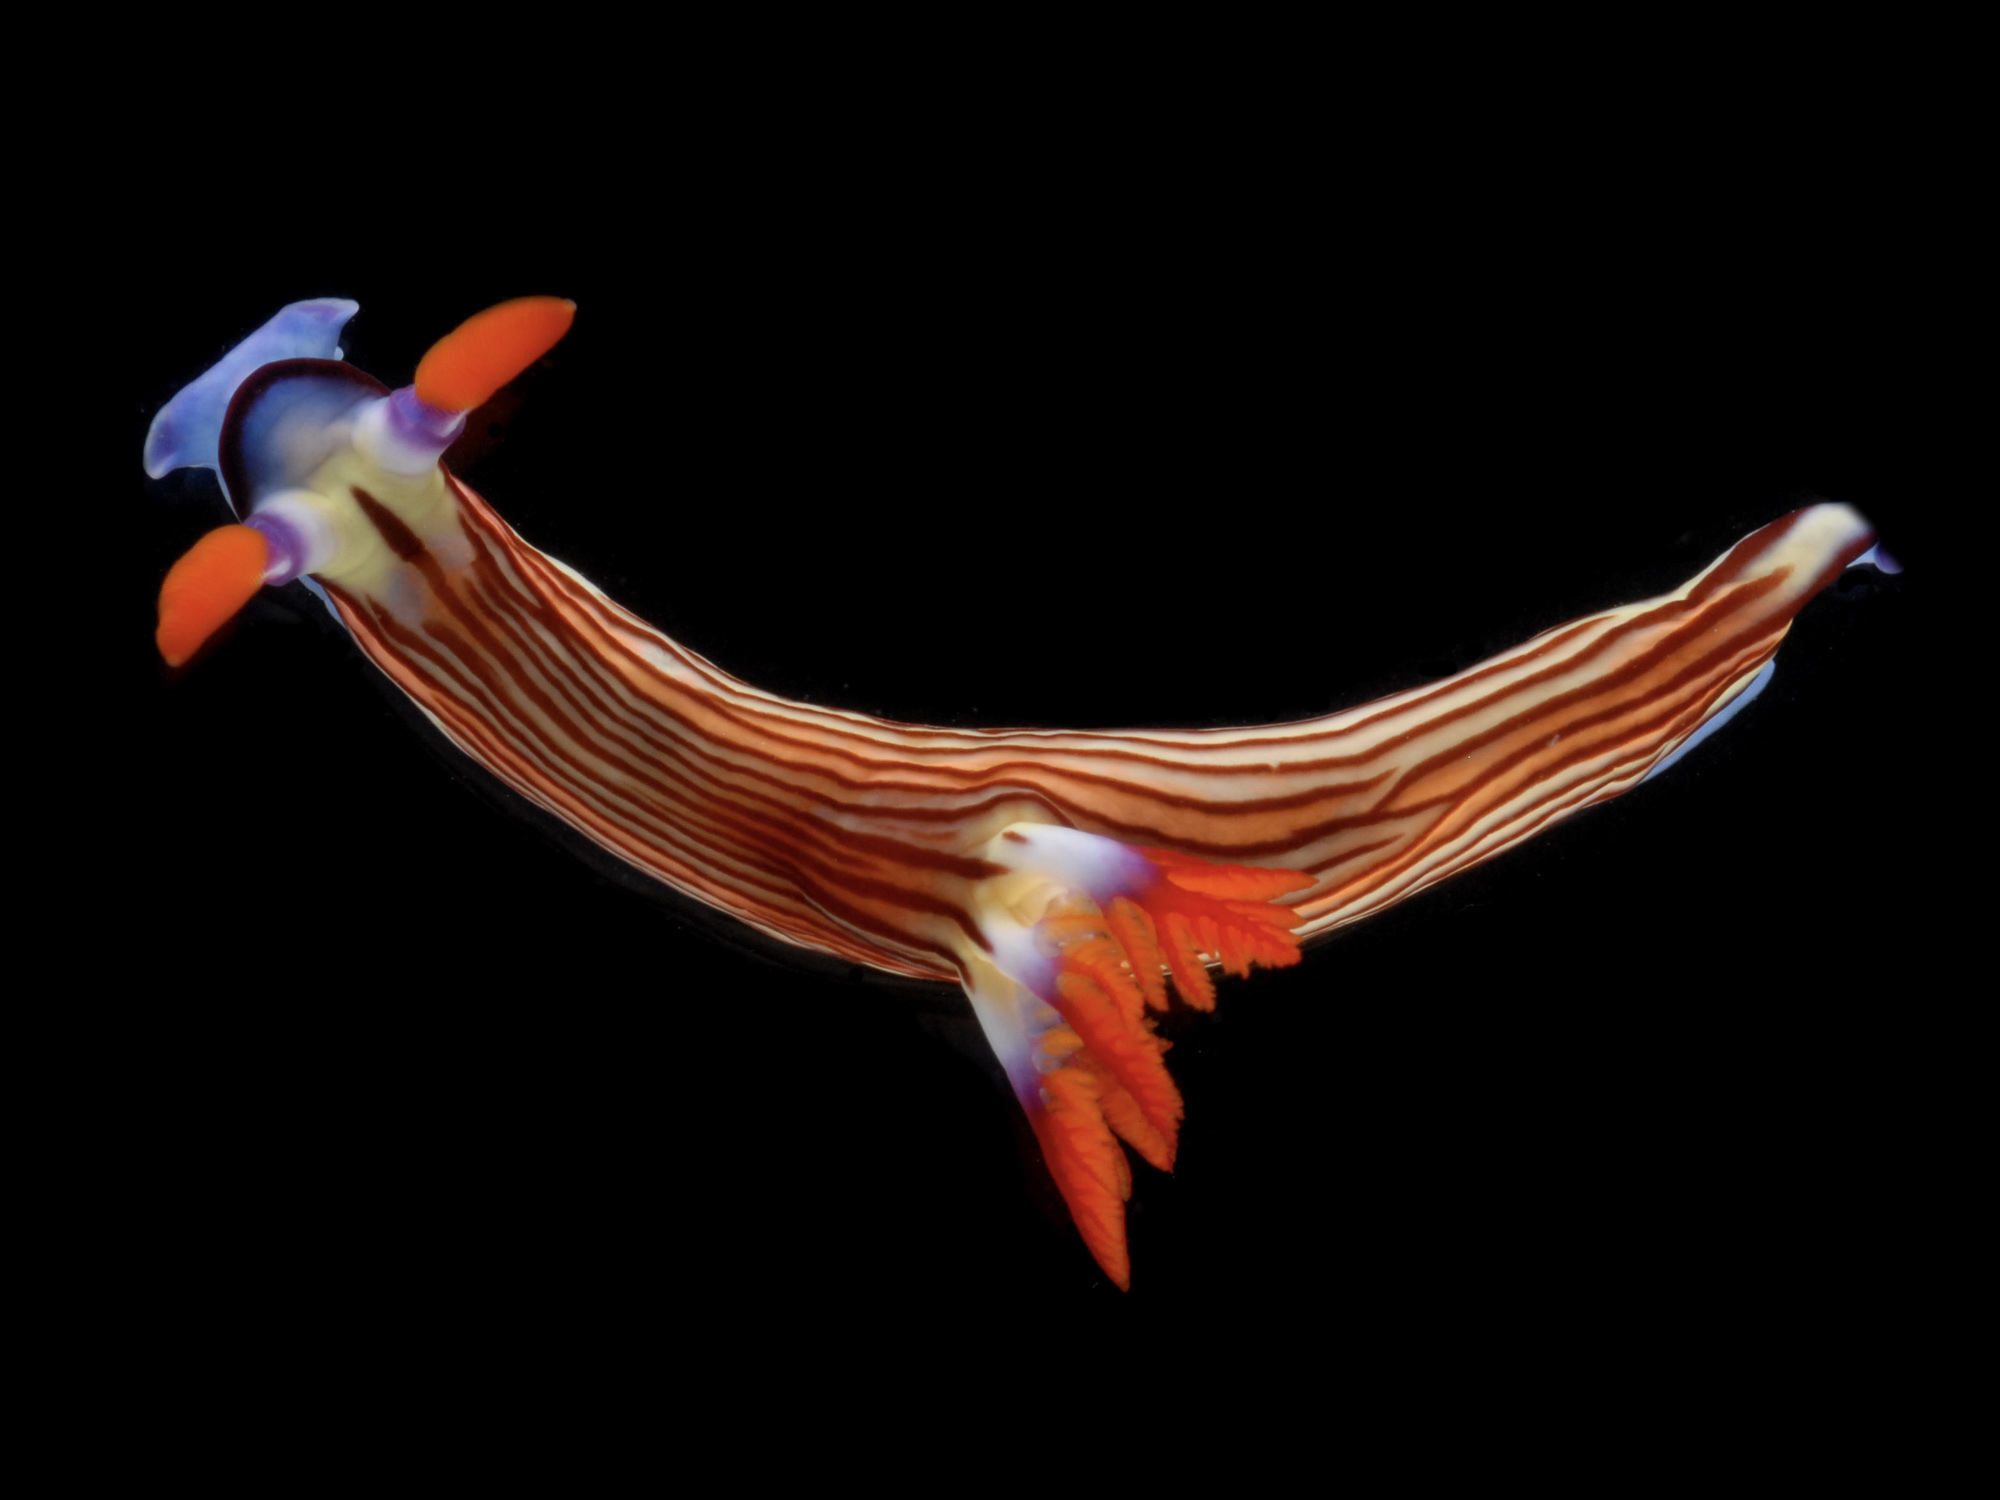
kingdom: Animalia
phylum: Mollusca
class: Gastropoda
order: Nudibranchia
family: Polyceridae
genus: Nembrotha
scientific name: Nembrotha aurea
